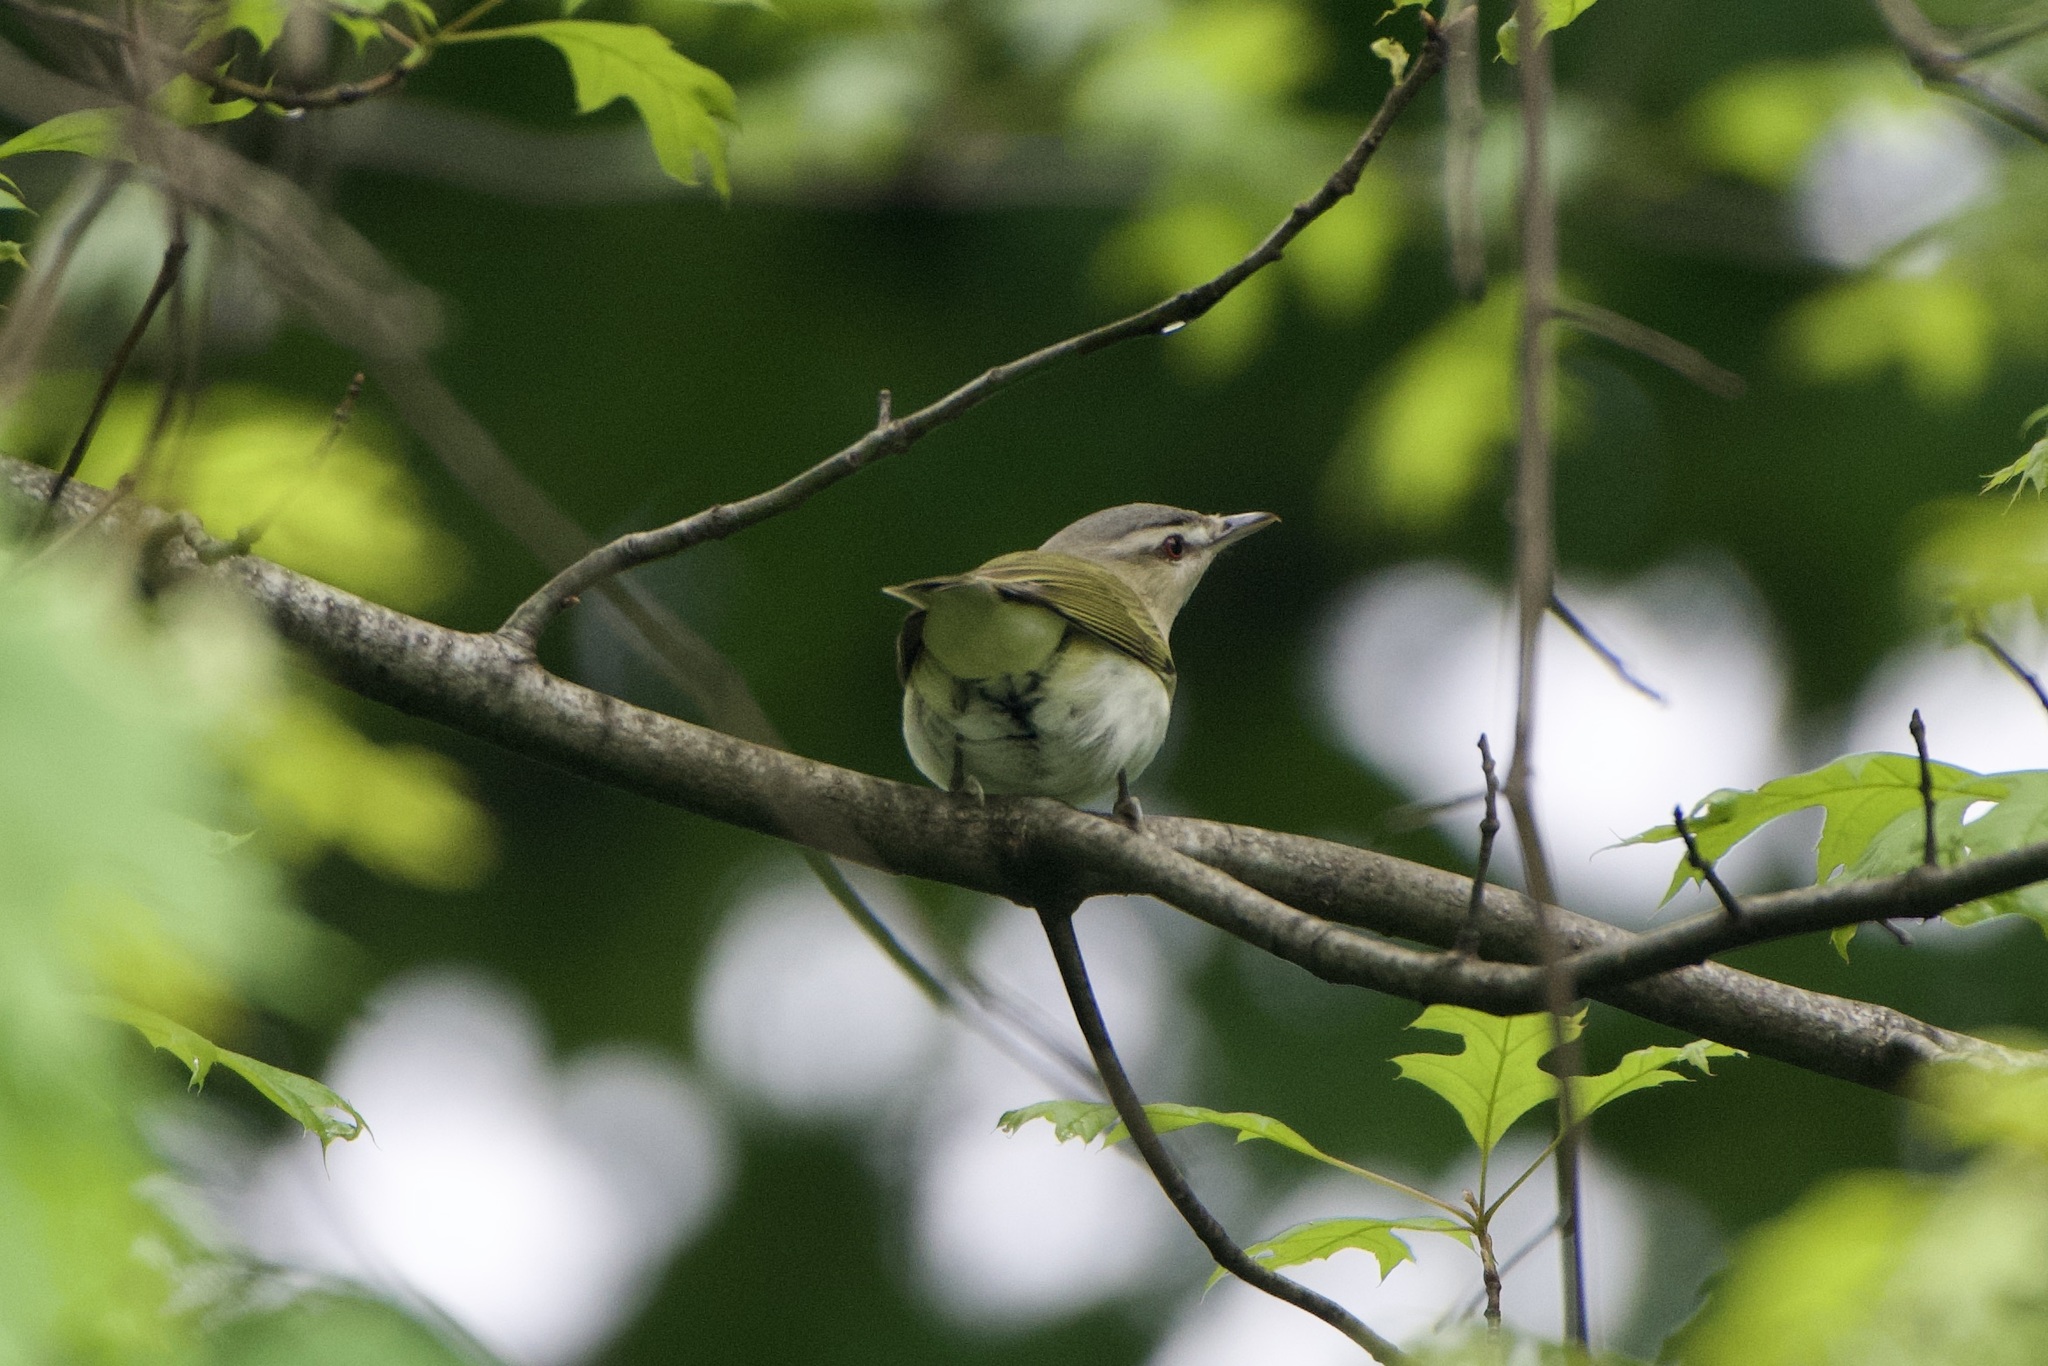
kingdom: Animalia
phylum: Chordata
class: Aves
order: Passeriformes
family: Vireonidae
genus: Vireo
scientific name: Vireo olivaceus
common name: Red-eyed vireo
